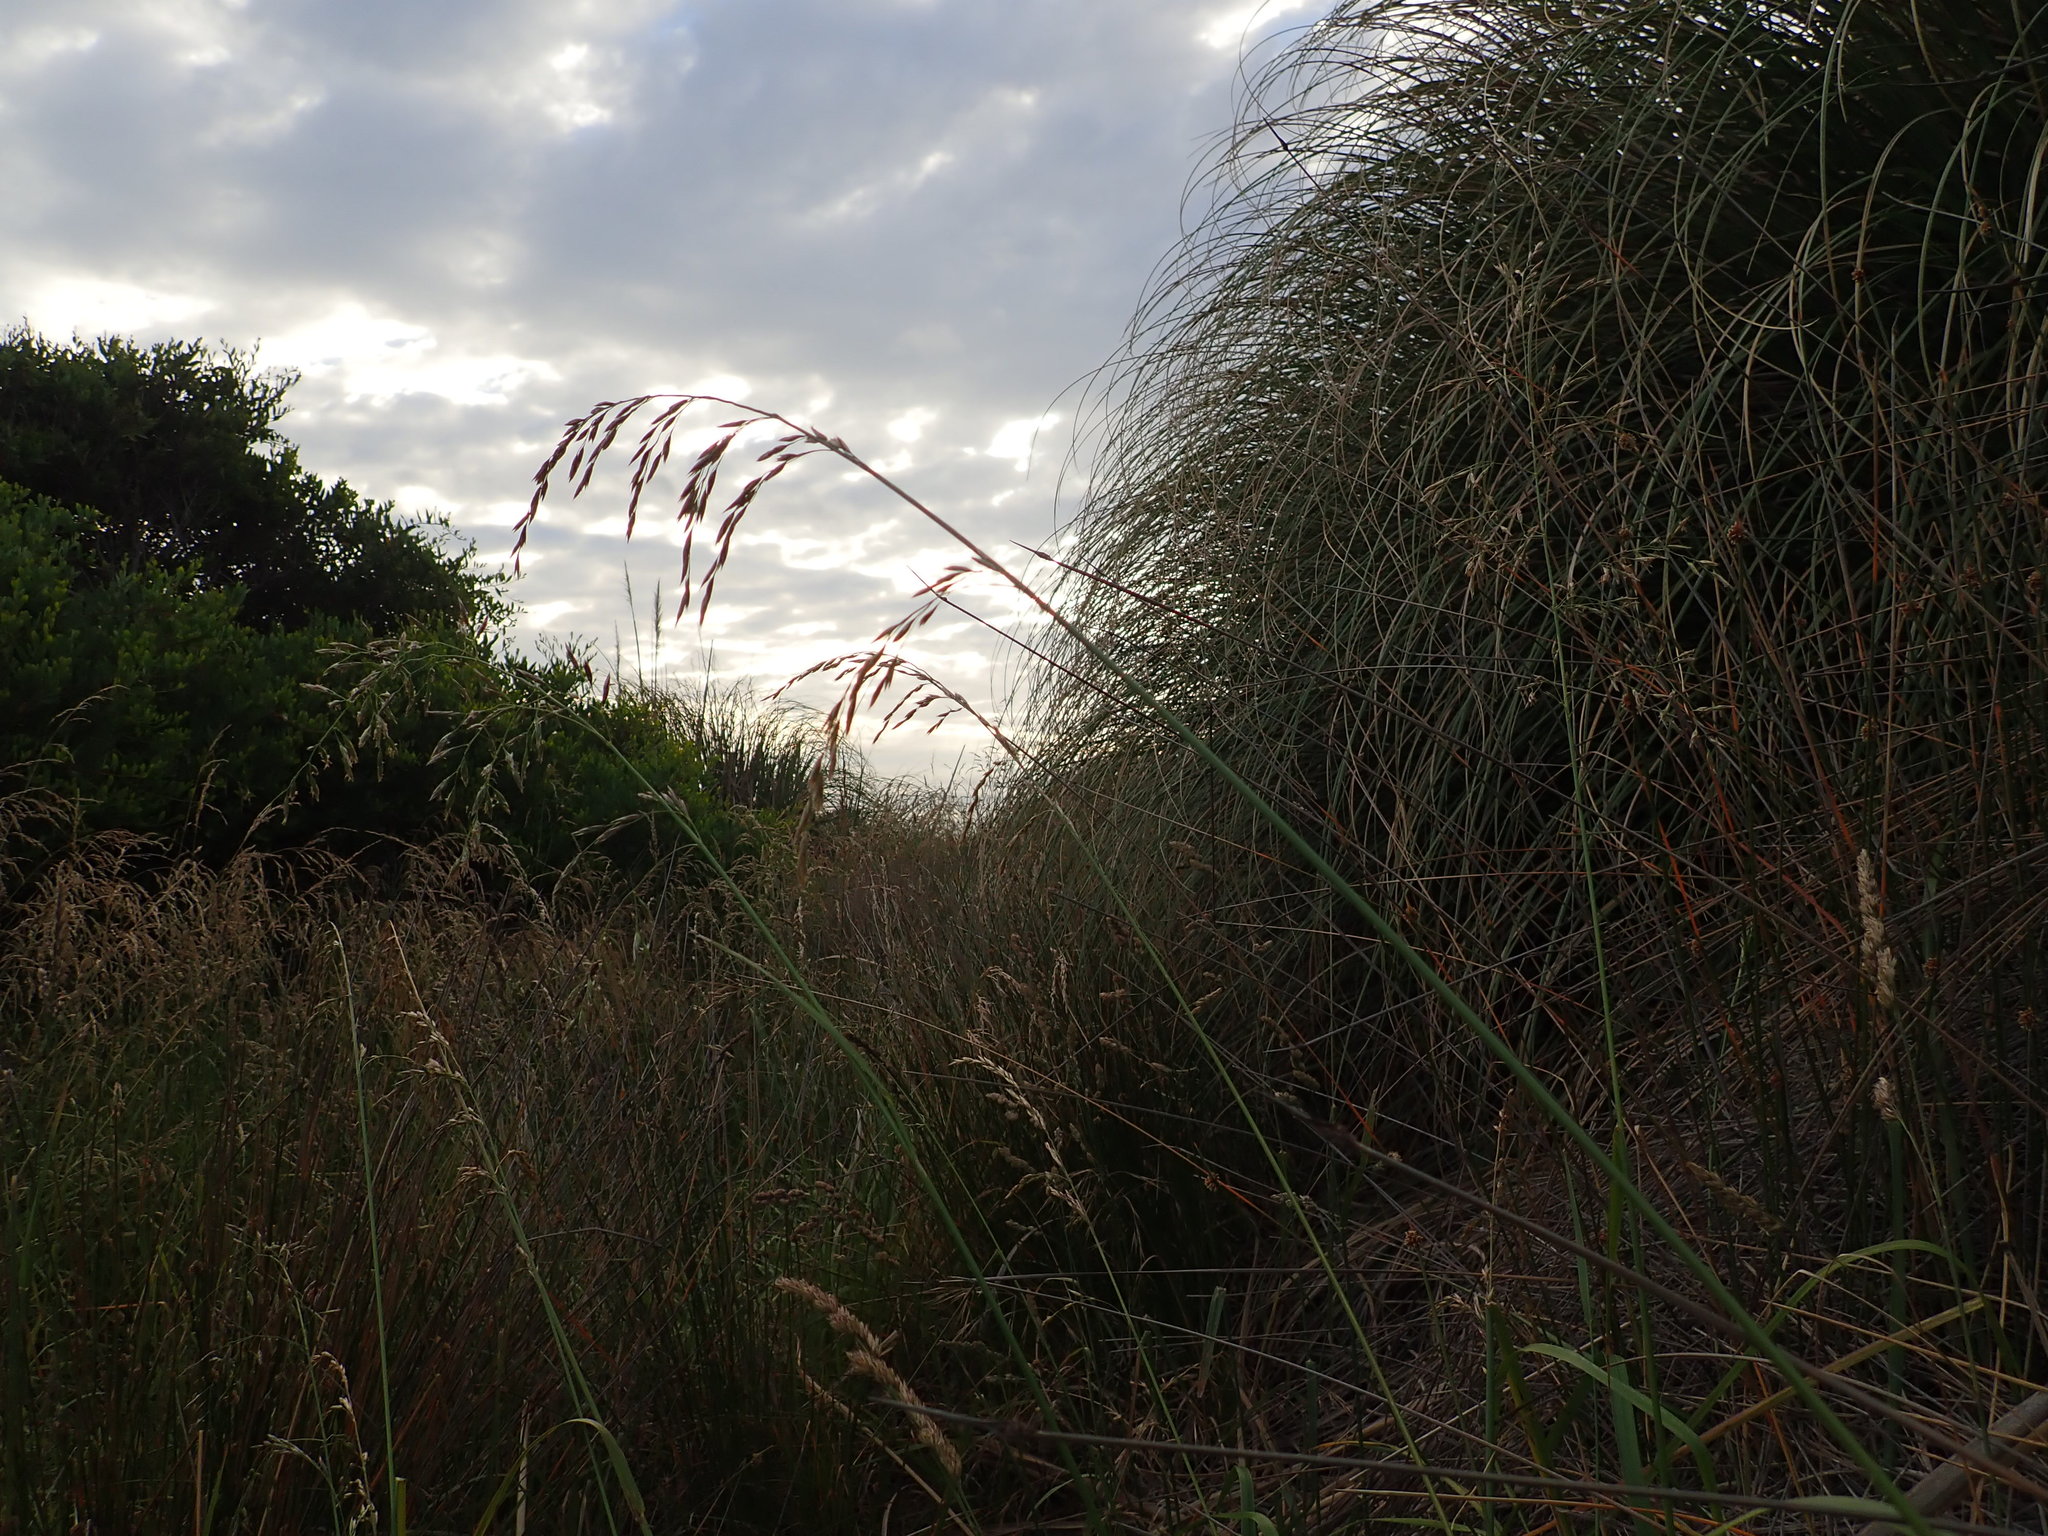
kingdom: Plantae
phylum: Tracheophyta
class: Liliopsida
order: Poales
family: Poaceae
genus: Lolium
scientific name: Lolium arundinaceum
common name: Reed fescue
